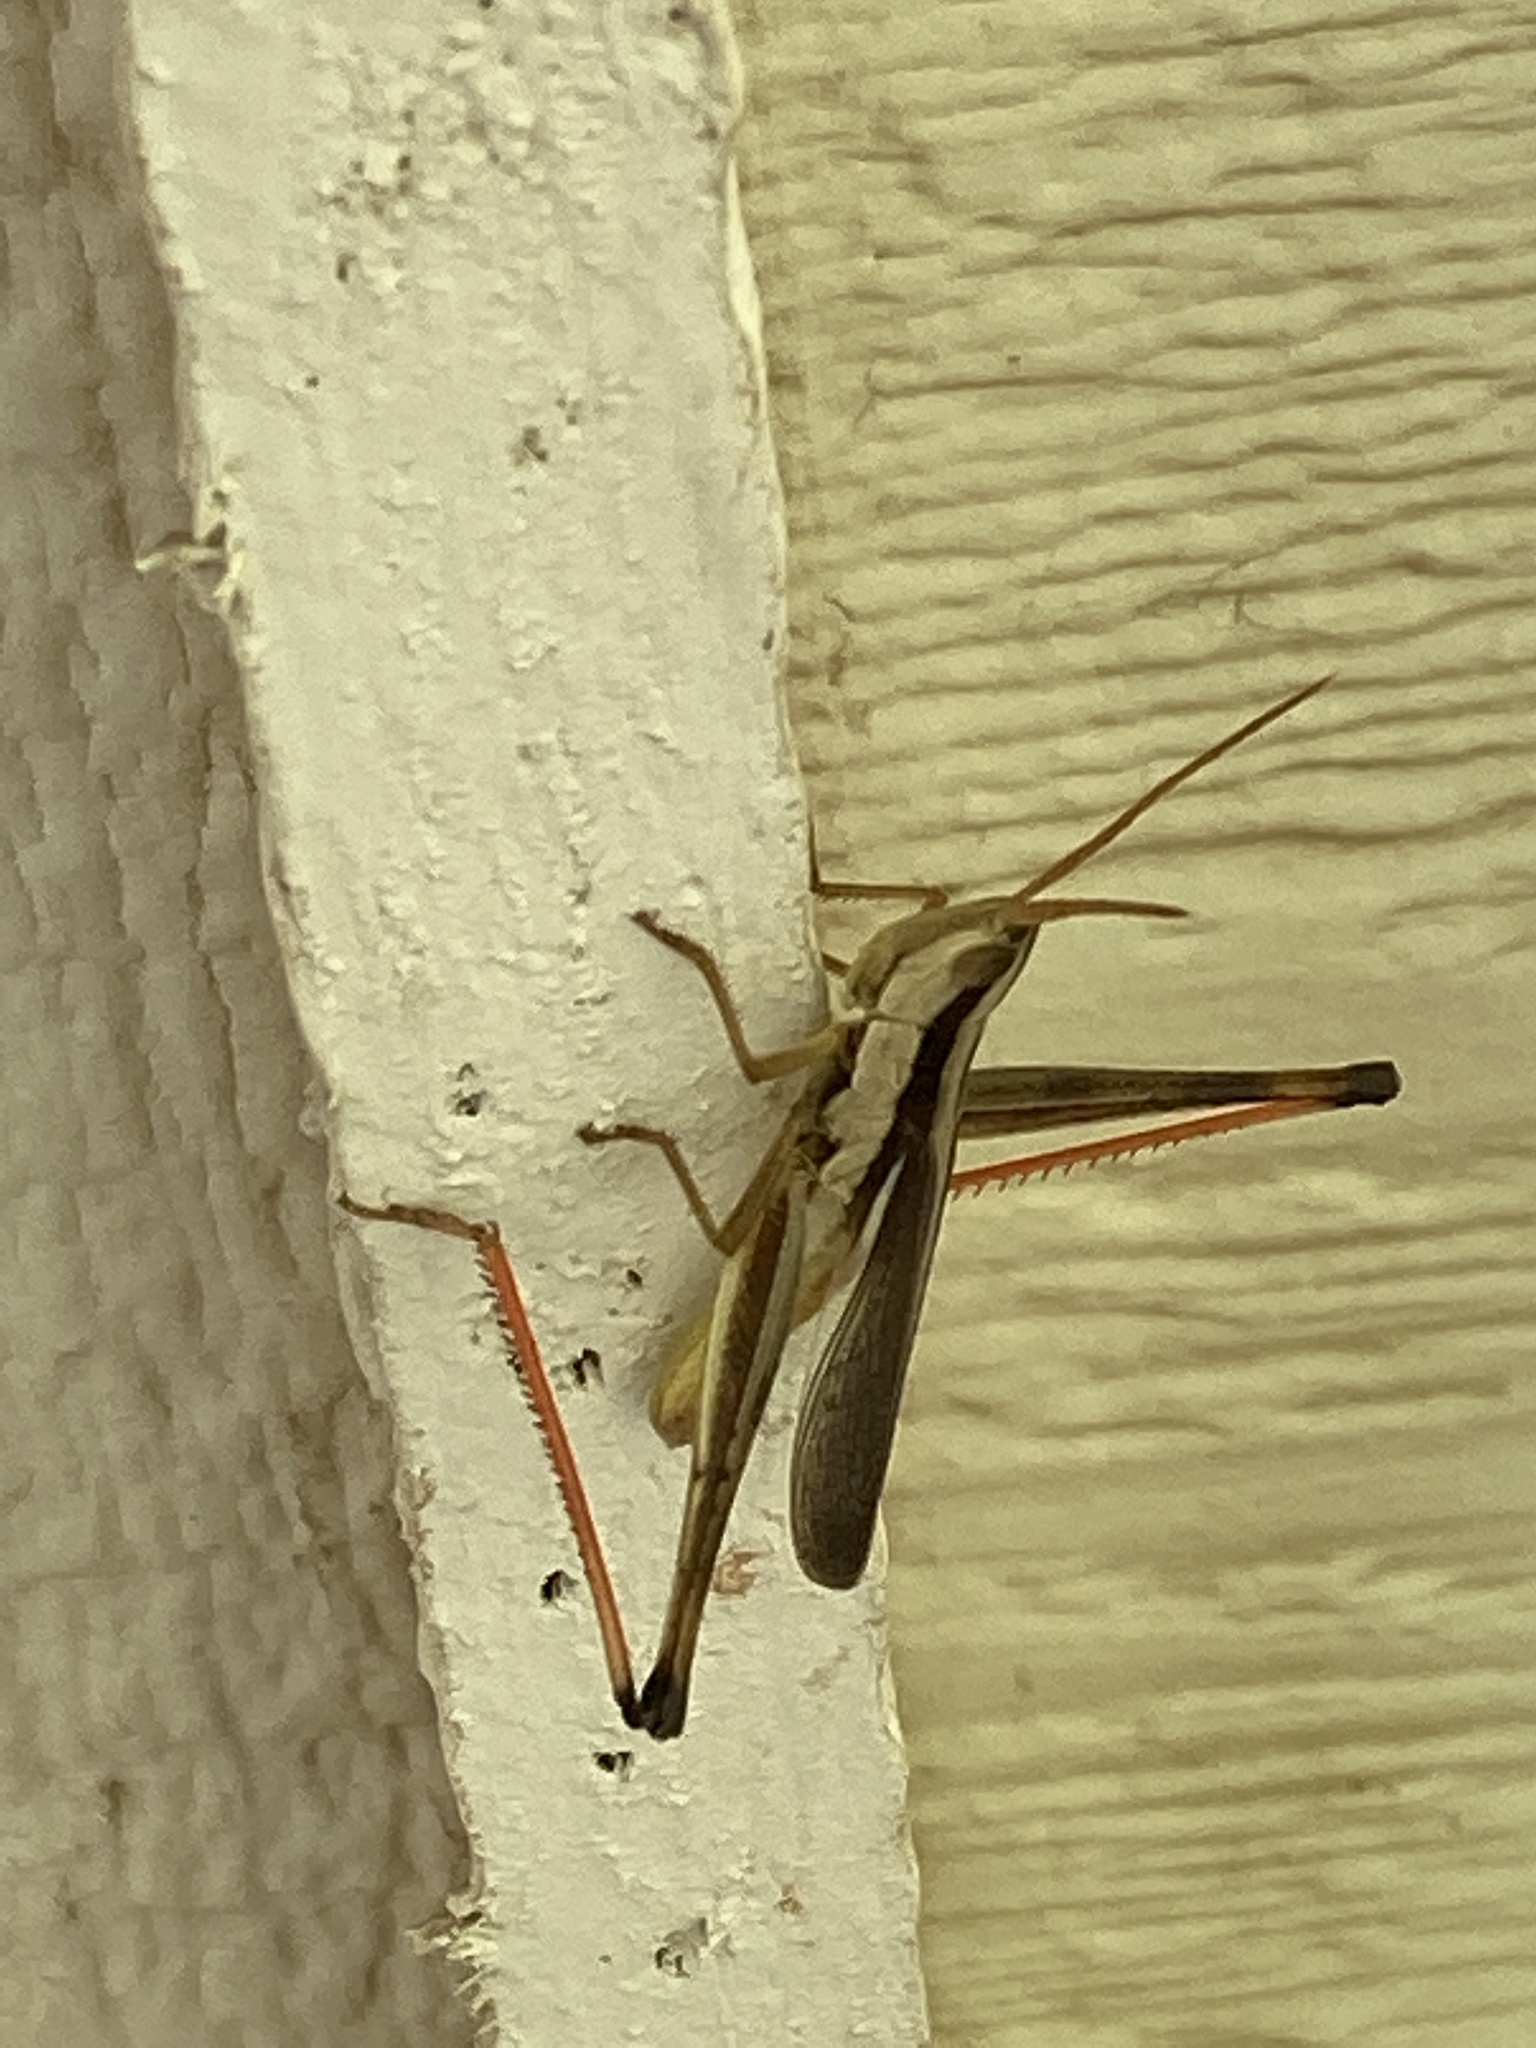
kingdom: Animalia
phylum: Arthropoda
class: Insecta
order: Orthoptera
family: Acrididae
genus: Mermiria
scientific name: Mermiria bivittata
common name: Two-striped mermiria grasshopper
